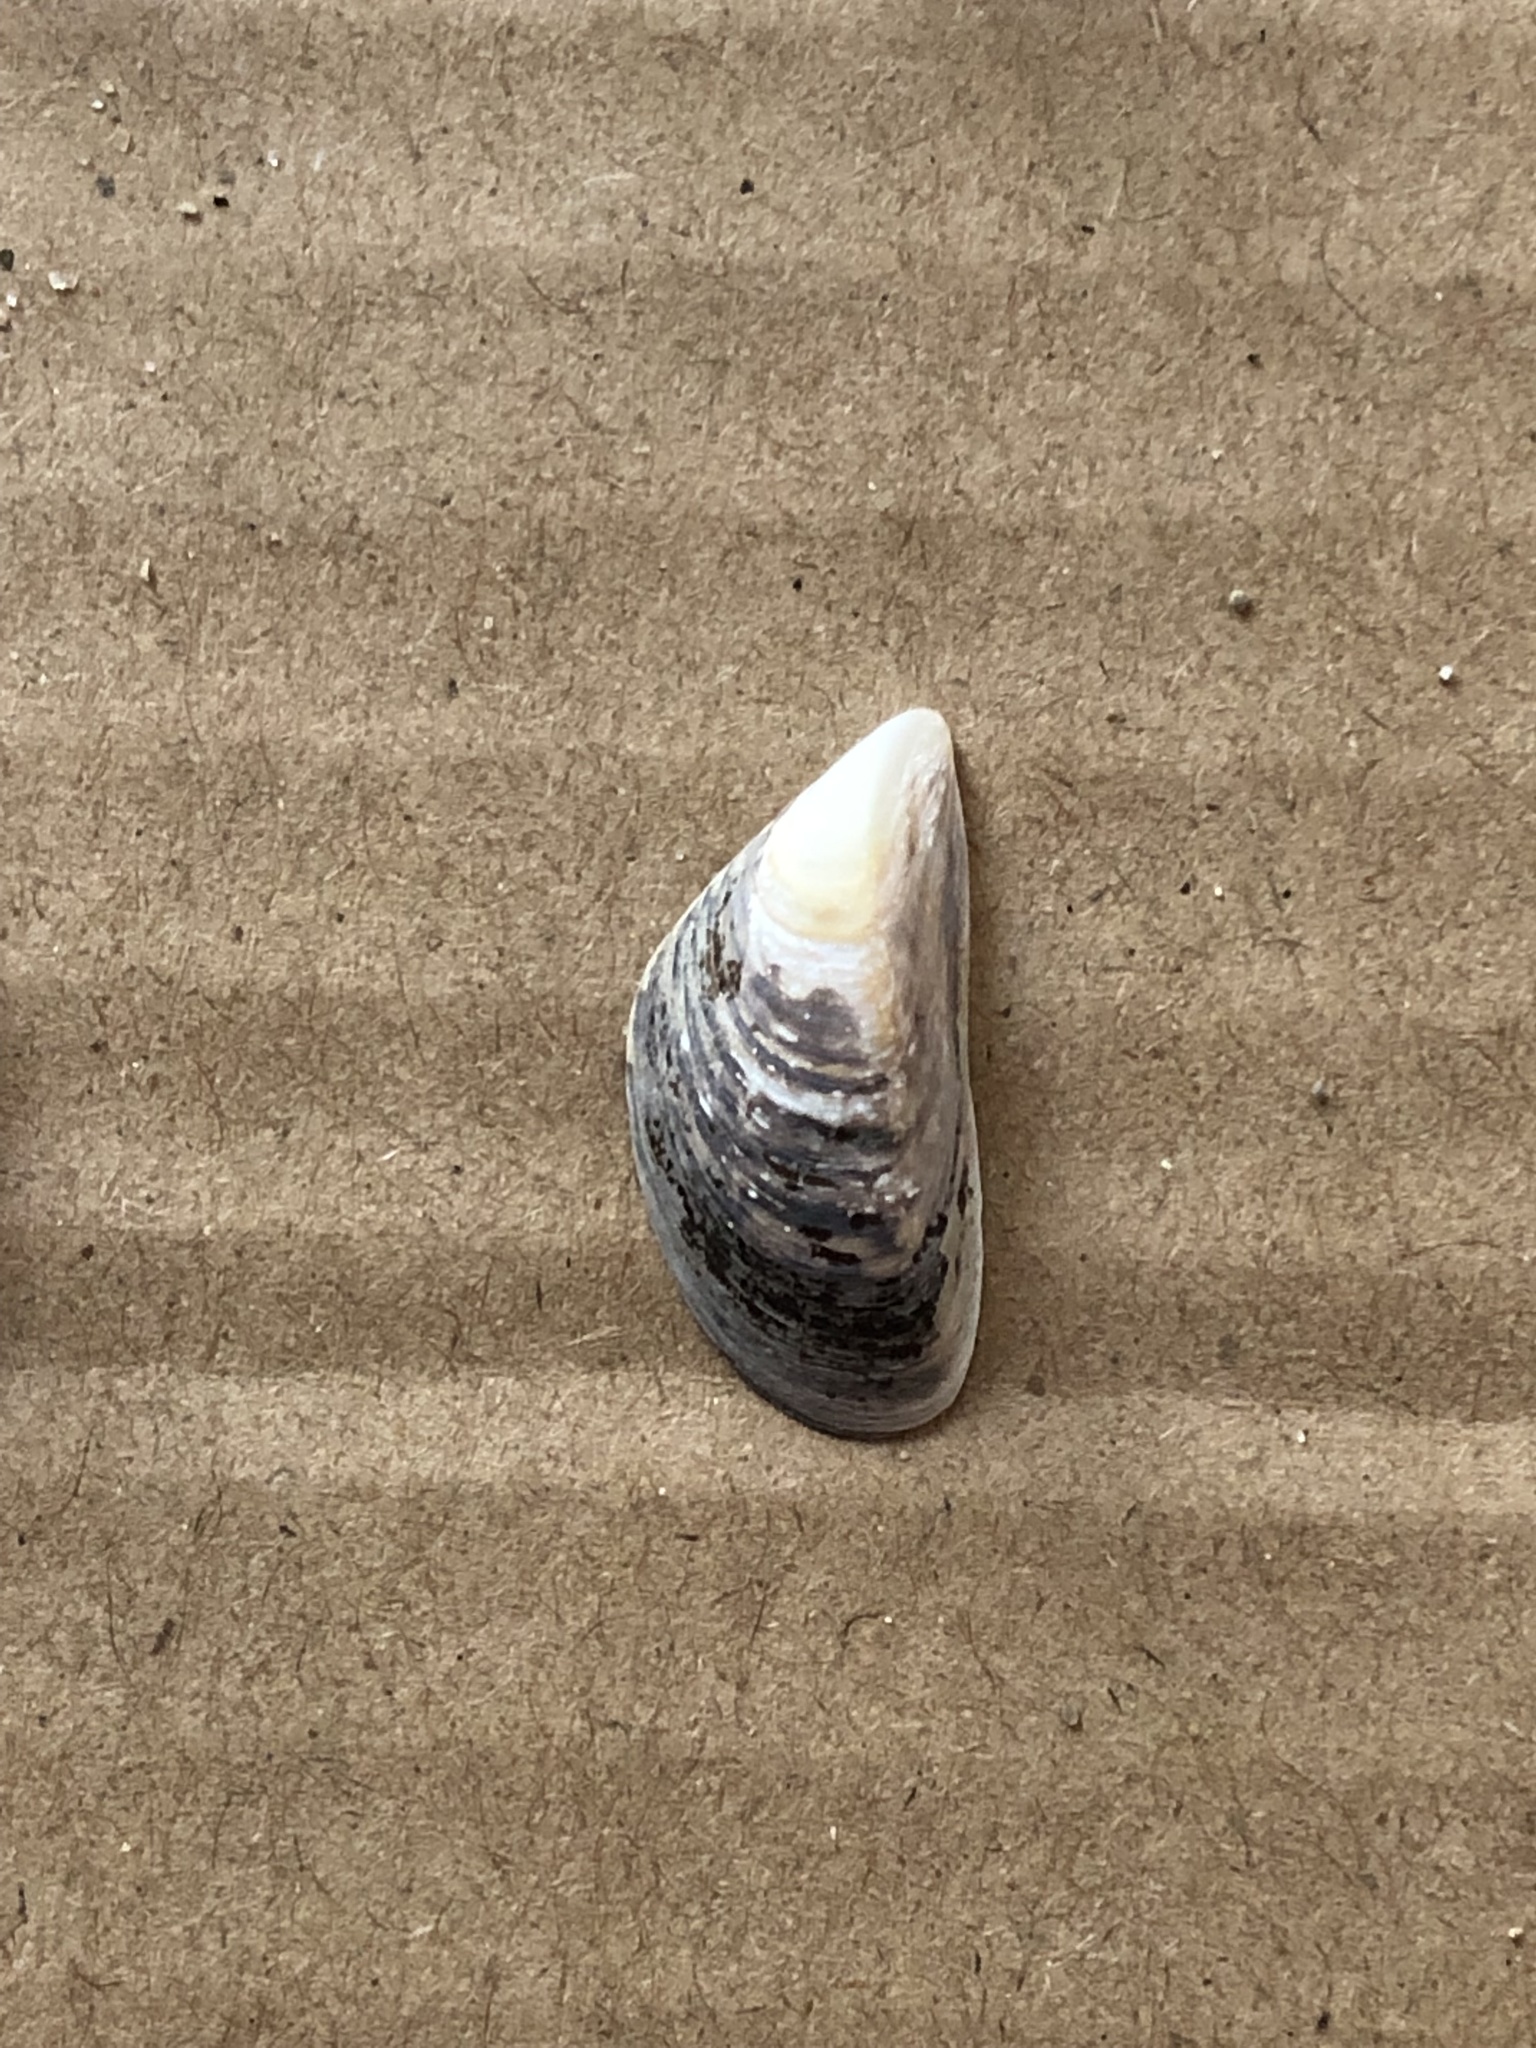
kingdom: Animalia
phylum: Mollusca
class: Bivalvia
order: Myida
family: Dreissenidae
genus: Dreissena
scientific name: Dreissena polymorpha
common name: Zebra mussel
